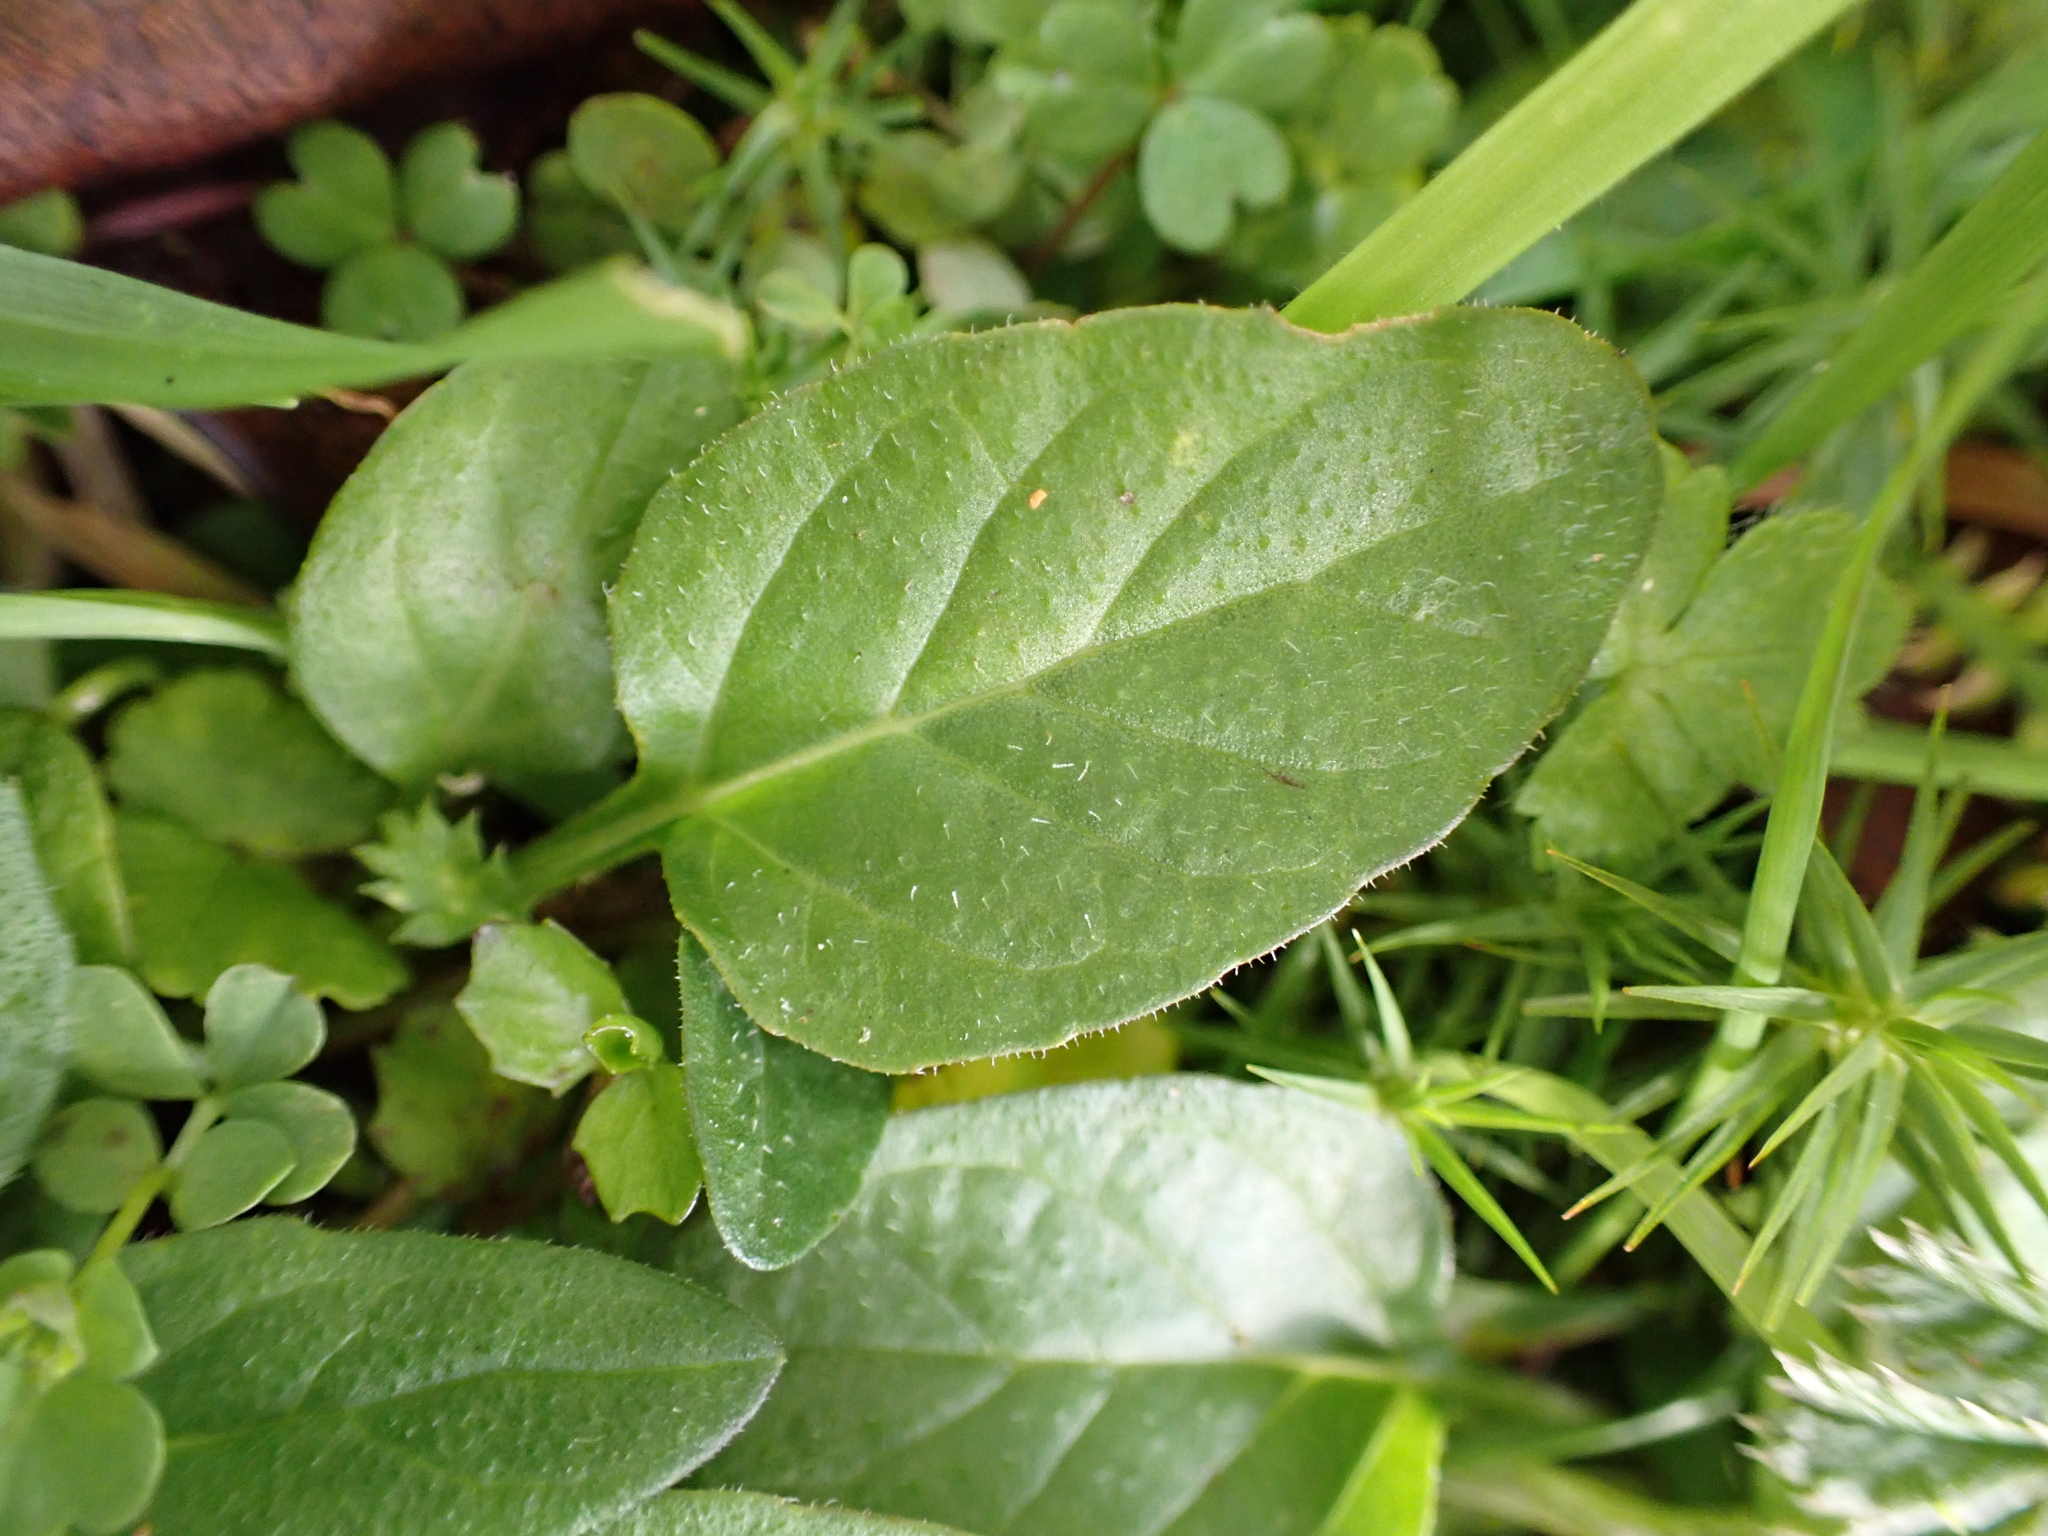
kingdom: Plantae
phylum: Tracheophyta
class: Magnoliopsida
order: Lamiales
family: Lamiaceae
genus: Prunella
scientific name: Prunella vulgaris
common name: Heal-all
